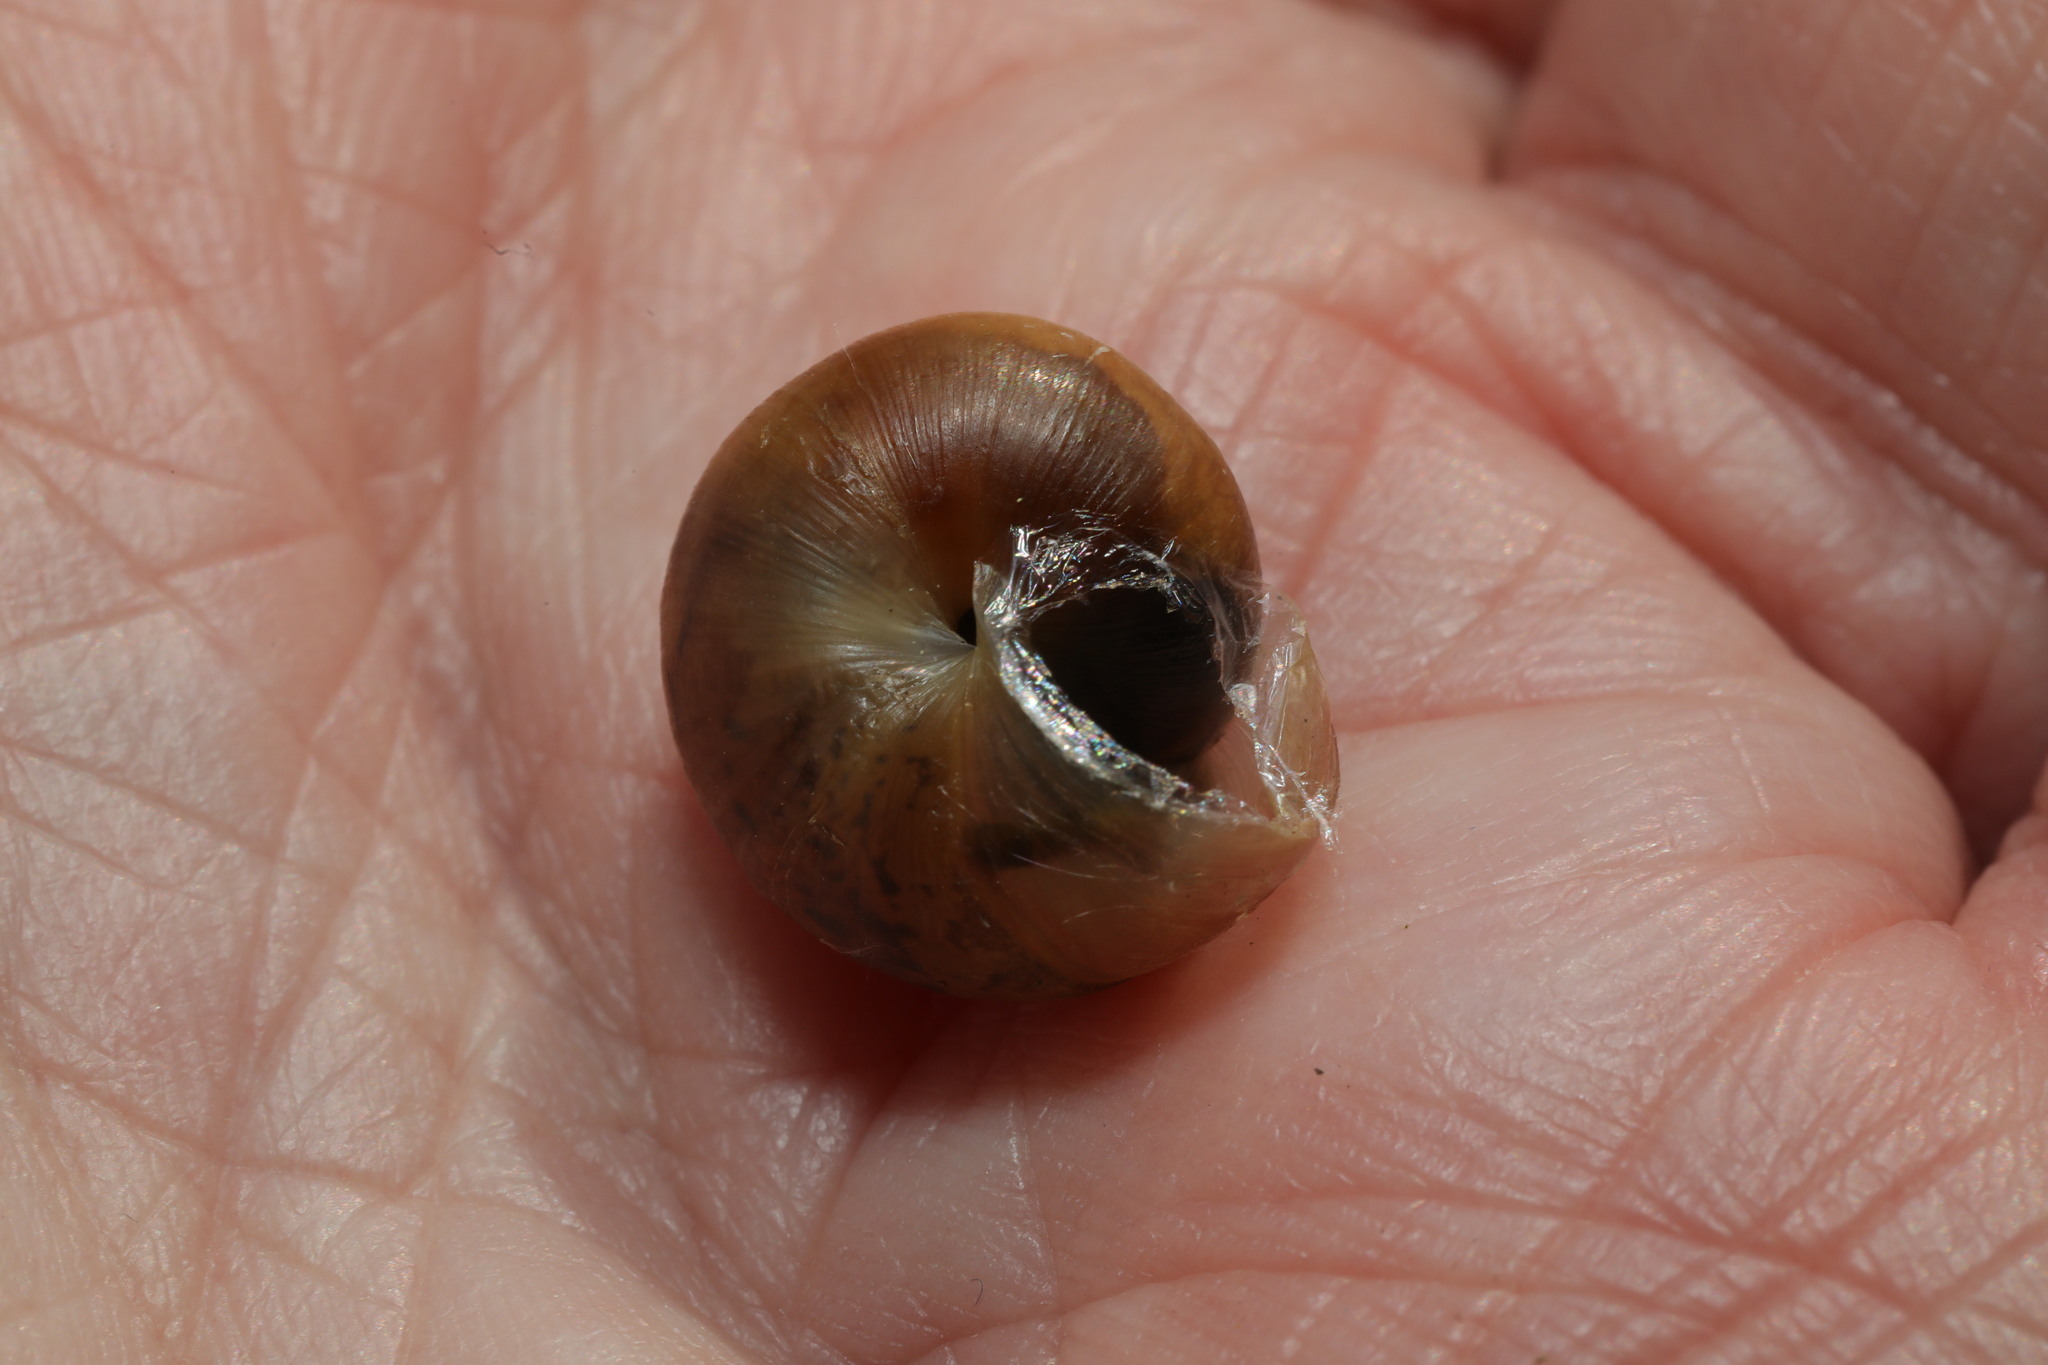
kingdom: Animalia
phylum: Mollusca
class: Gastropoda
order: Stylommatophora
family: Hygromiidae
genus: Monacha
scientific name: Monacha cantiana
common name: Kentish snail
